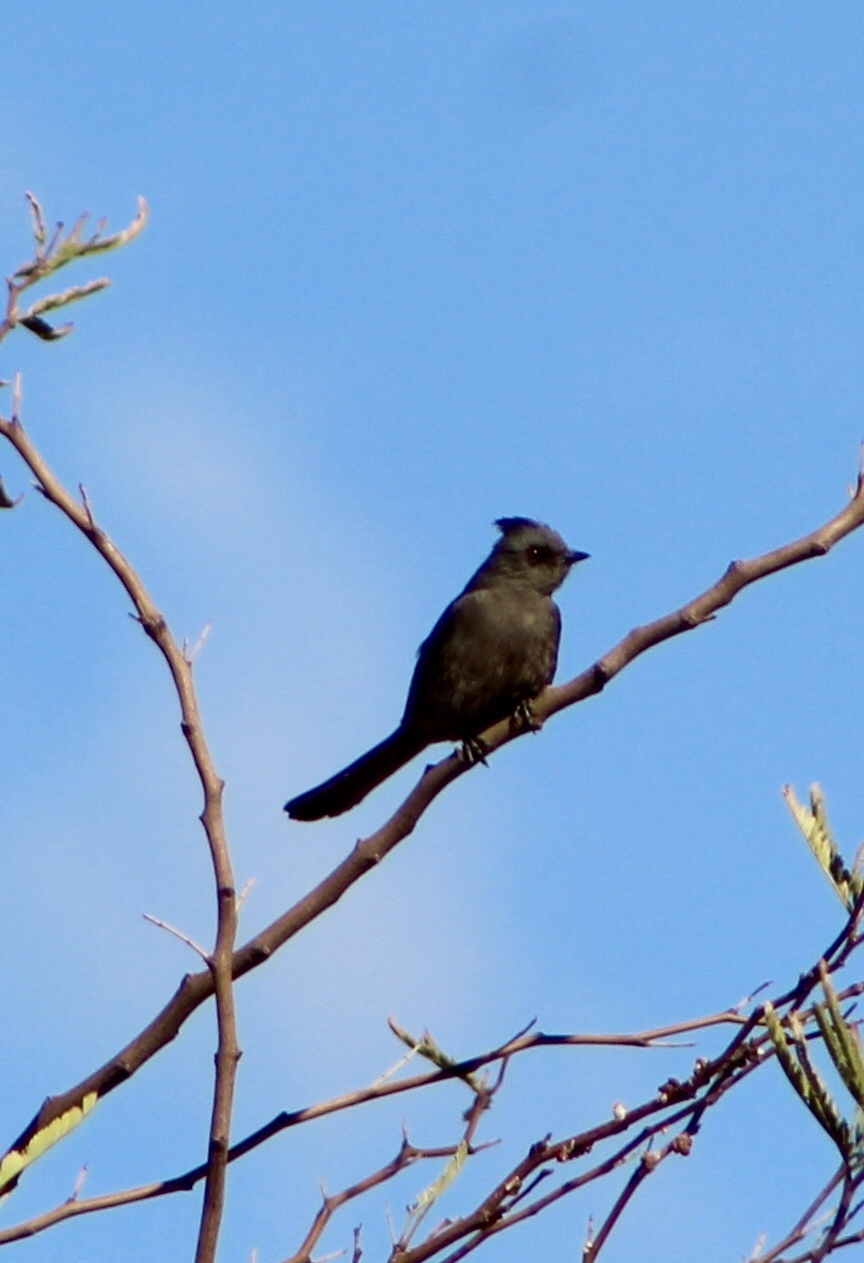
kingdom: Animalia
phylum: Chordata
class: Aves
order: Passeriformes
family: Ptilogonatidae
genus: Phainopepla
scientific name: Phainopepla nitens
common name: Phainopepla
